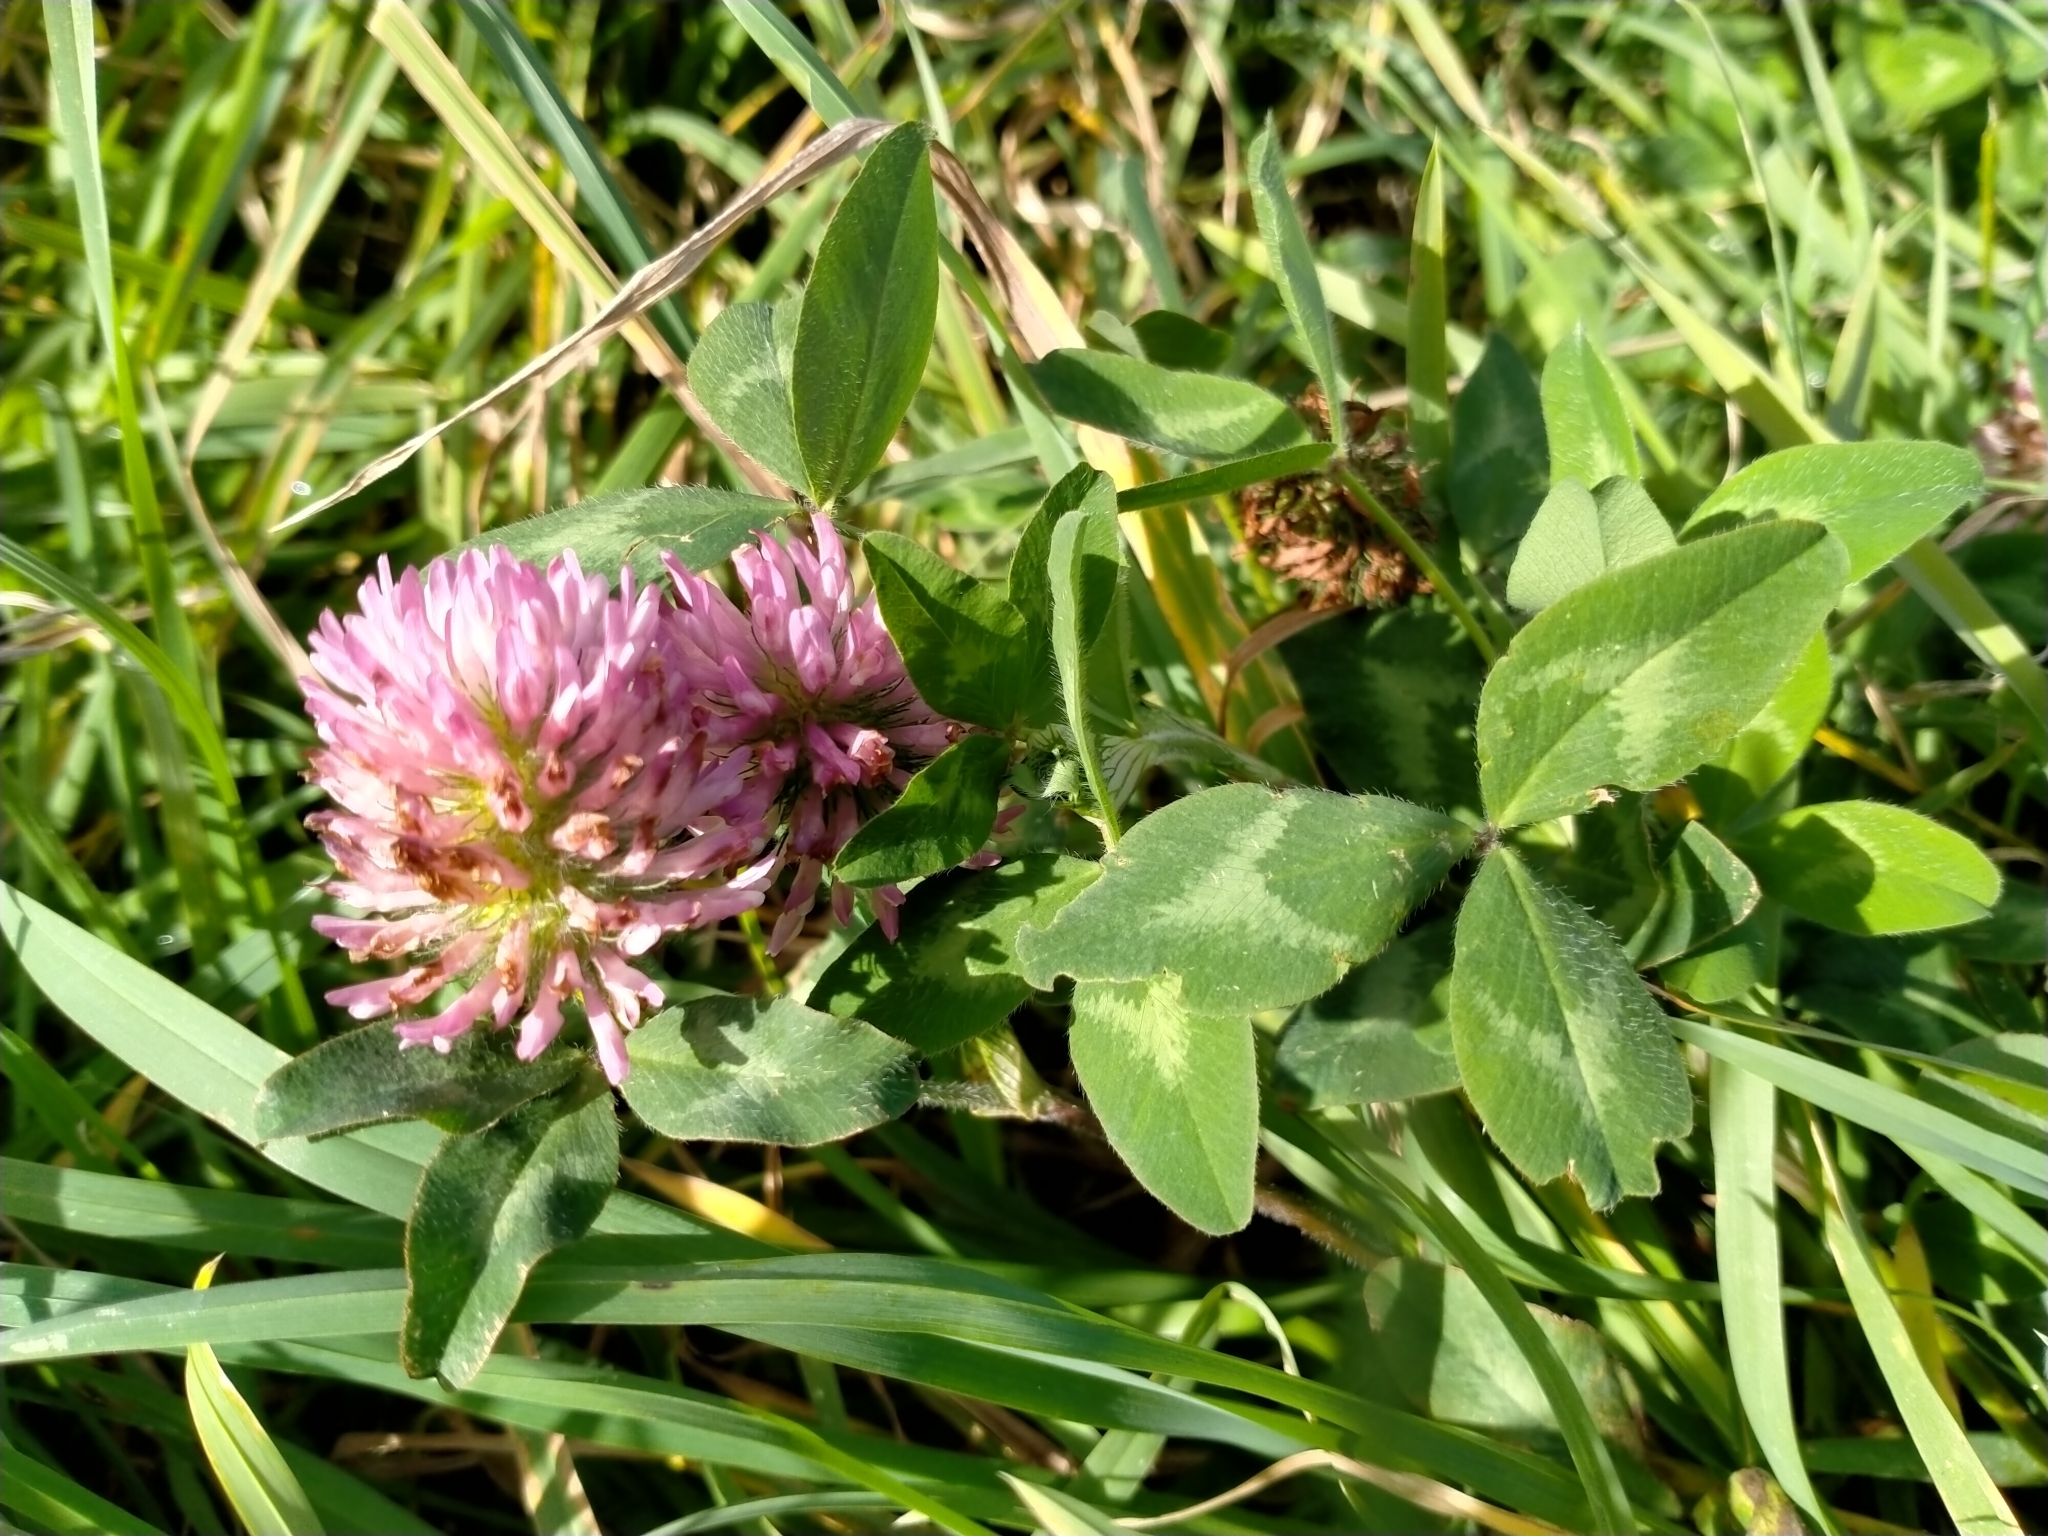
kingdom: Plantae
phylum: Tracheophyta
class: Magnoliopsida
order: Fabales
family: Fabaceae
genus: Trifolium
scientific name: Trifolium pratense
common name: Red clover
